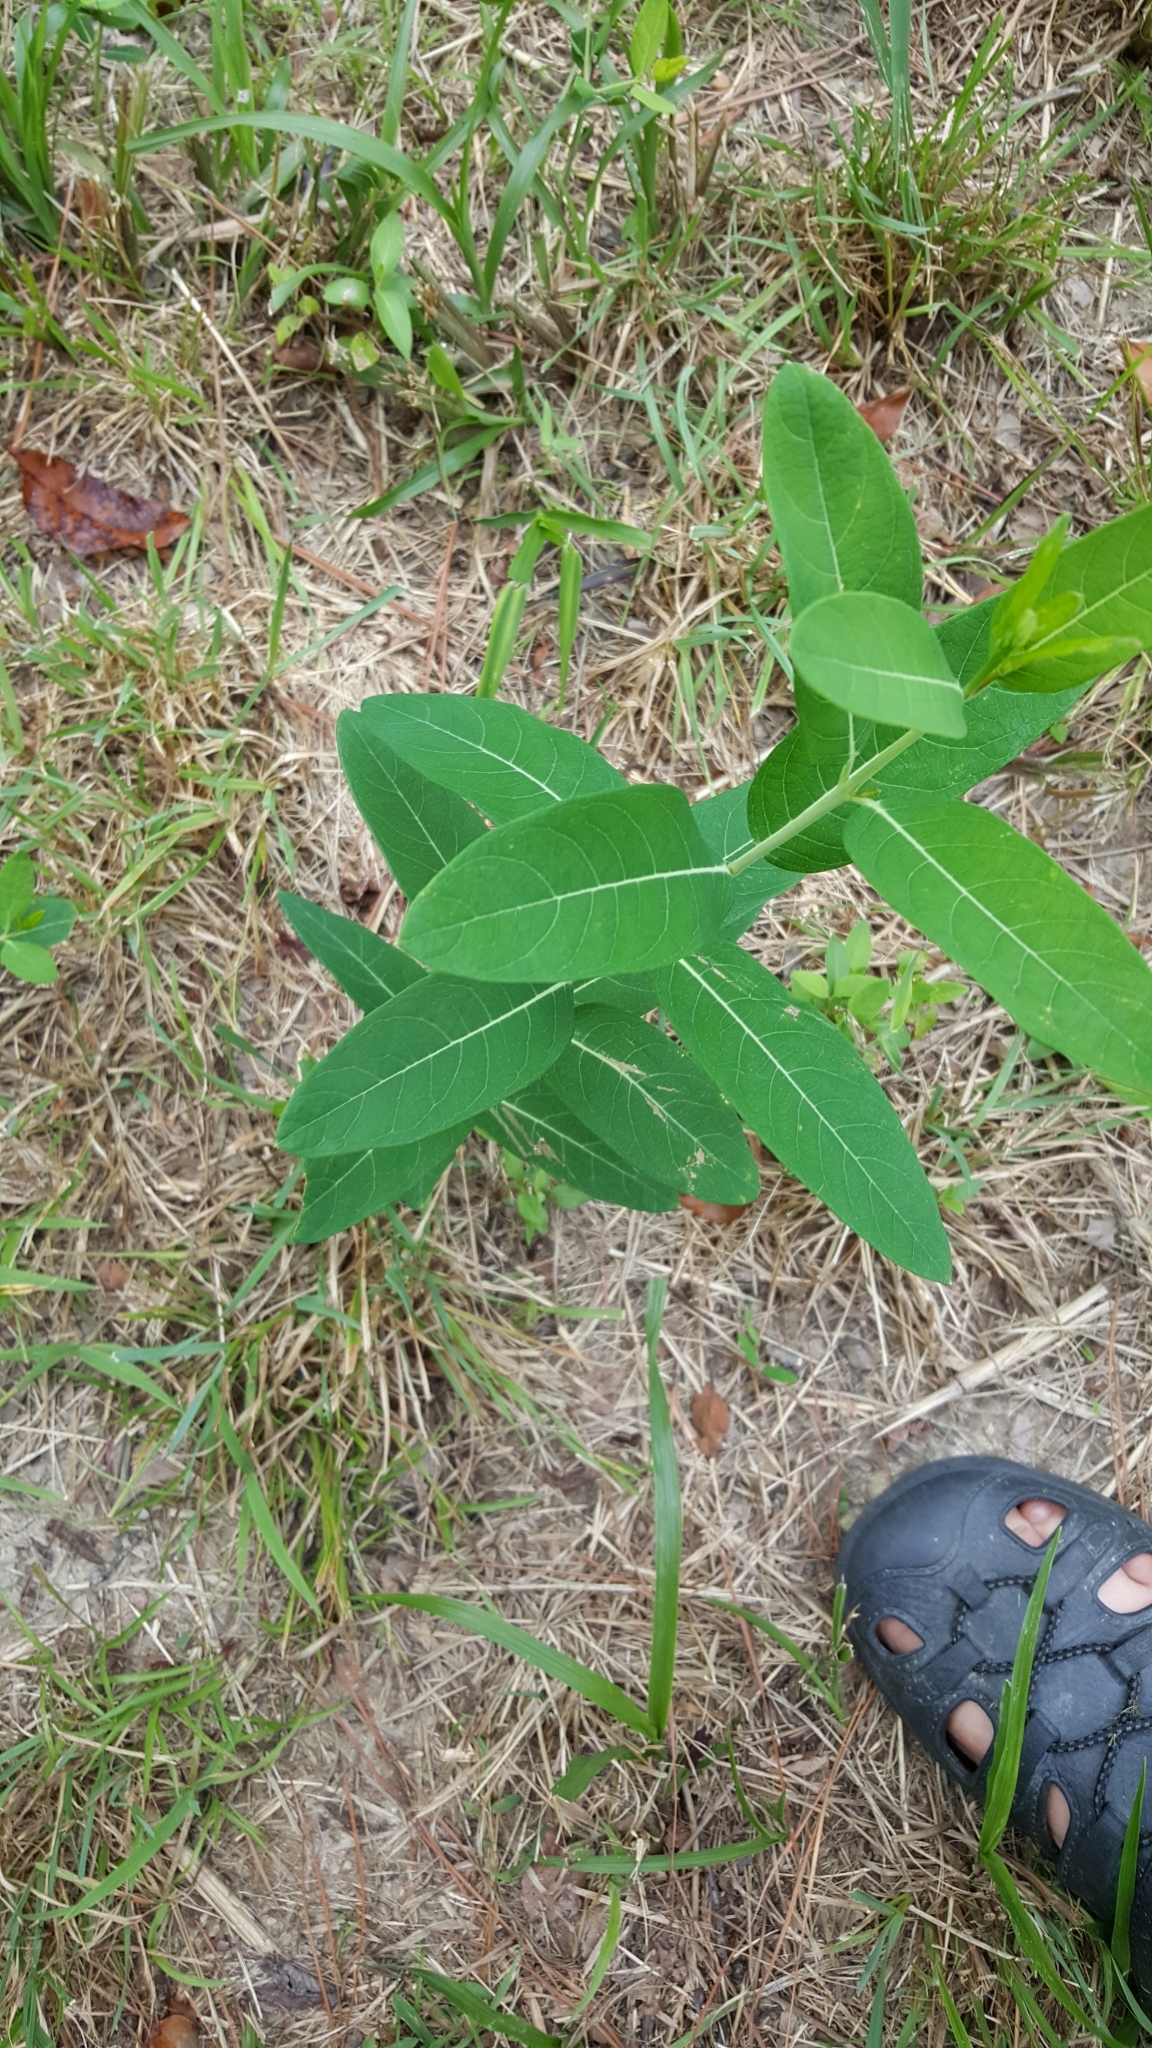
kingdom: Plantae
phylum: Tracheophyta
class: Magnoliopsida
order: Gentianales
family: Apocynaceae
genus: Apocynum
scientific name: Apocynum cannabinum
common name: Hemp dogbane
